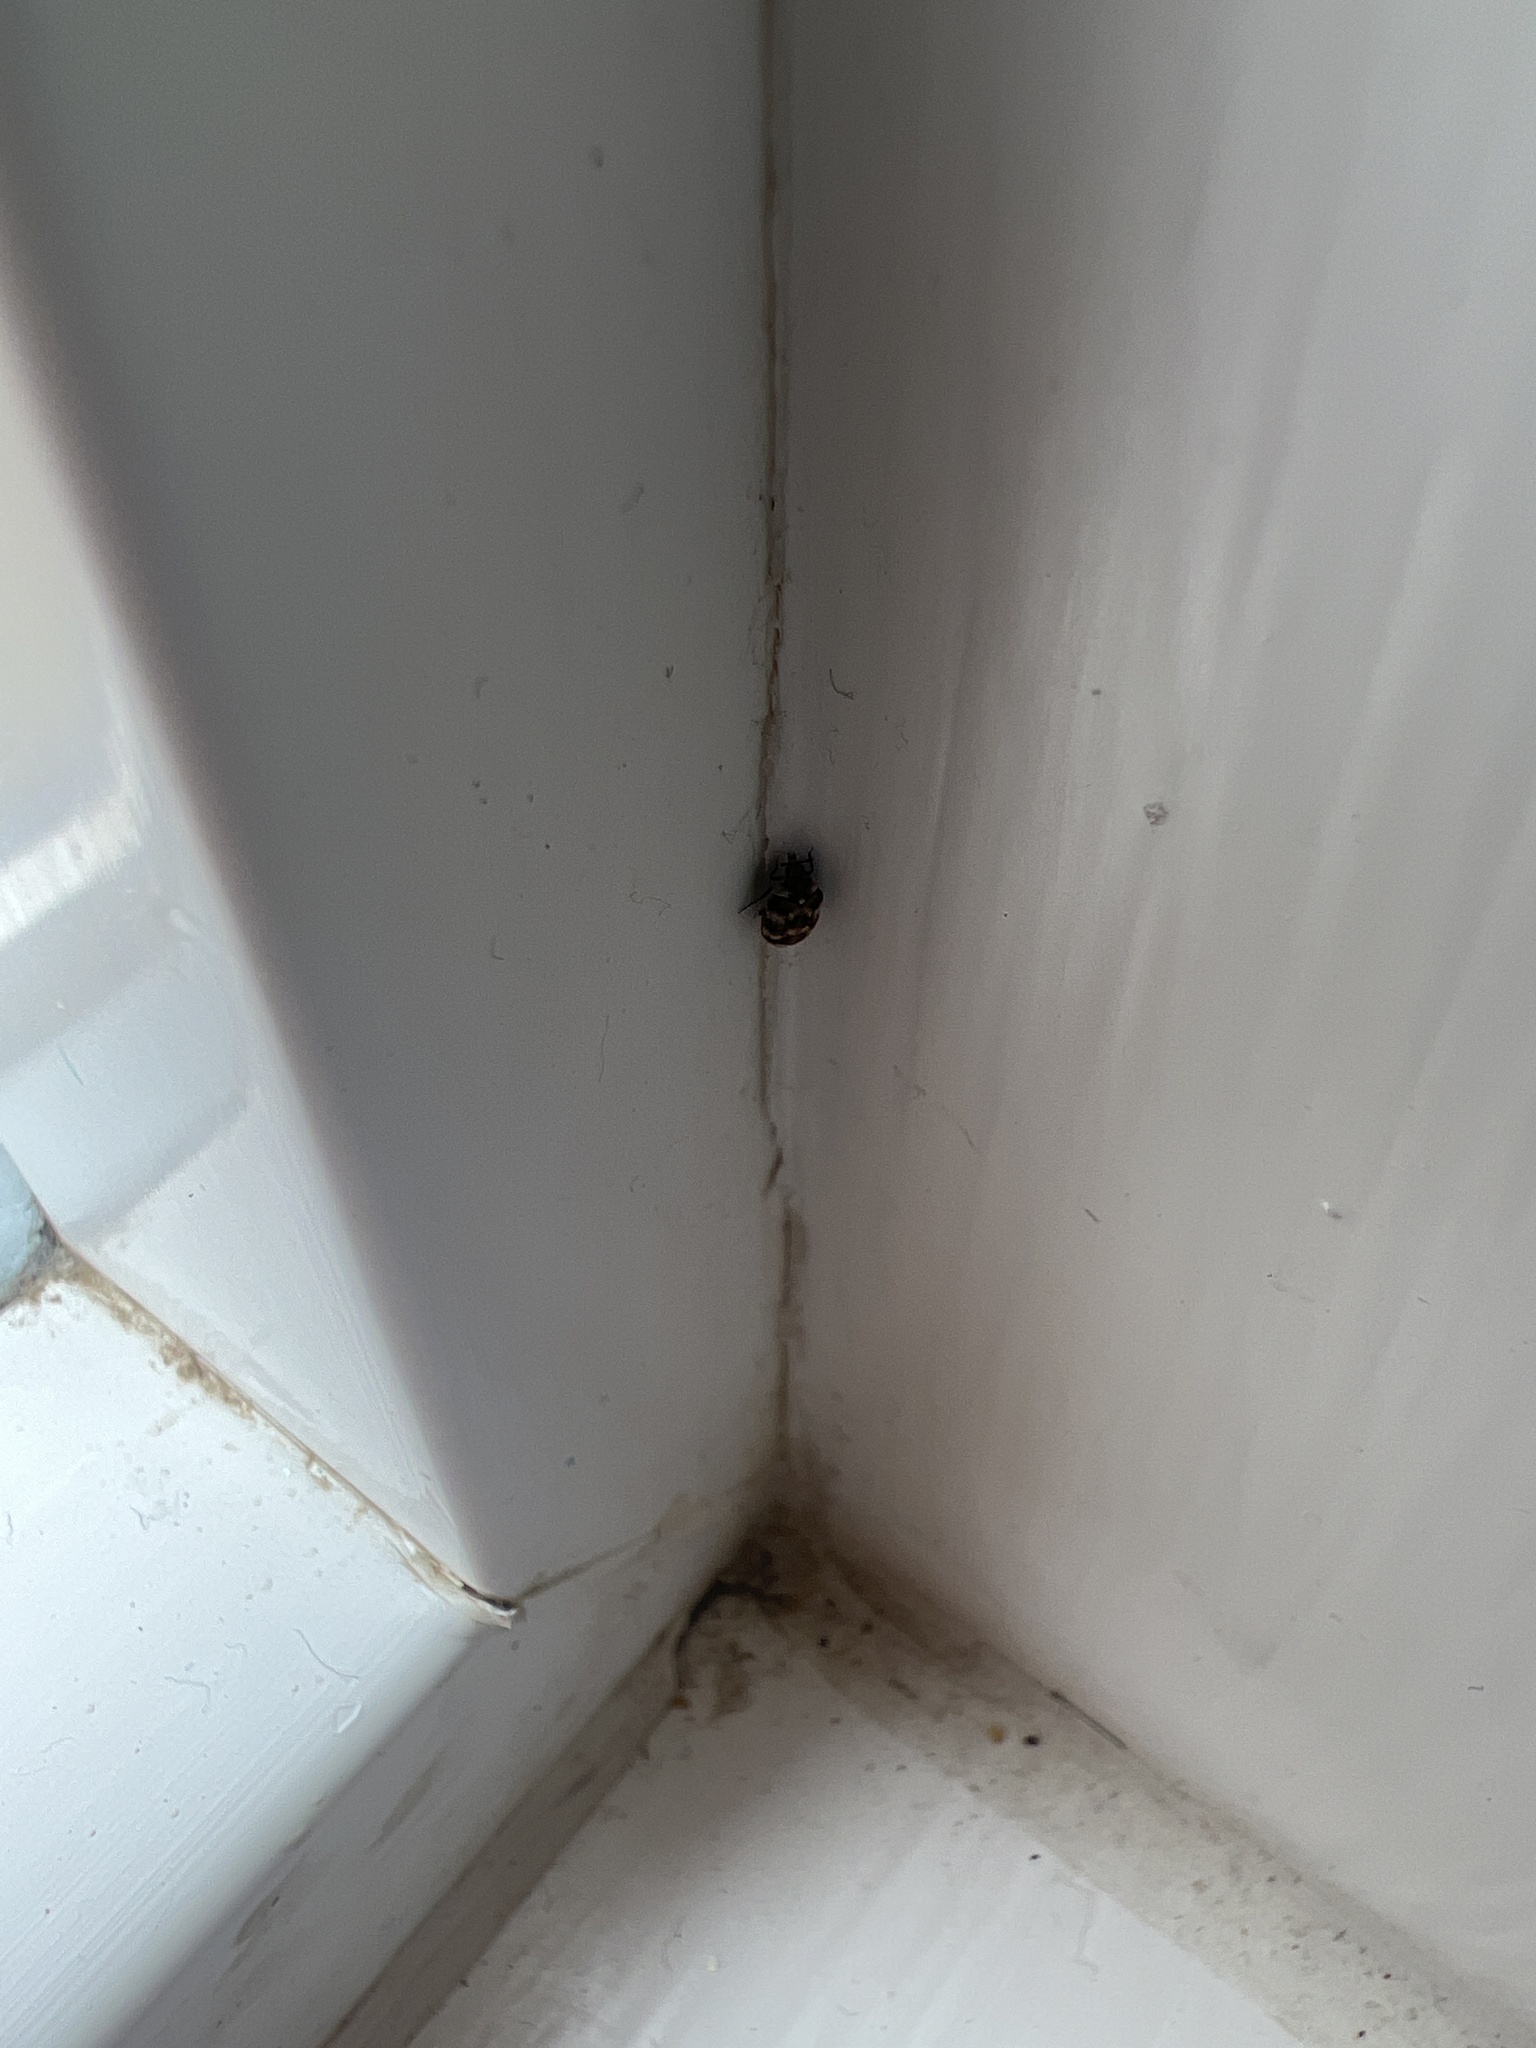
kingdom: Animalia
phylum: Arthropoda
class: Insecta
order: Coleoptera
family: Dermestidae
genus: Anthrenus
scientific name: Anthrenus verbasci
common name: Varied carpet beetle
